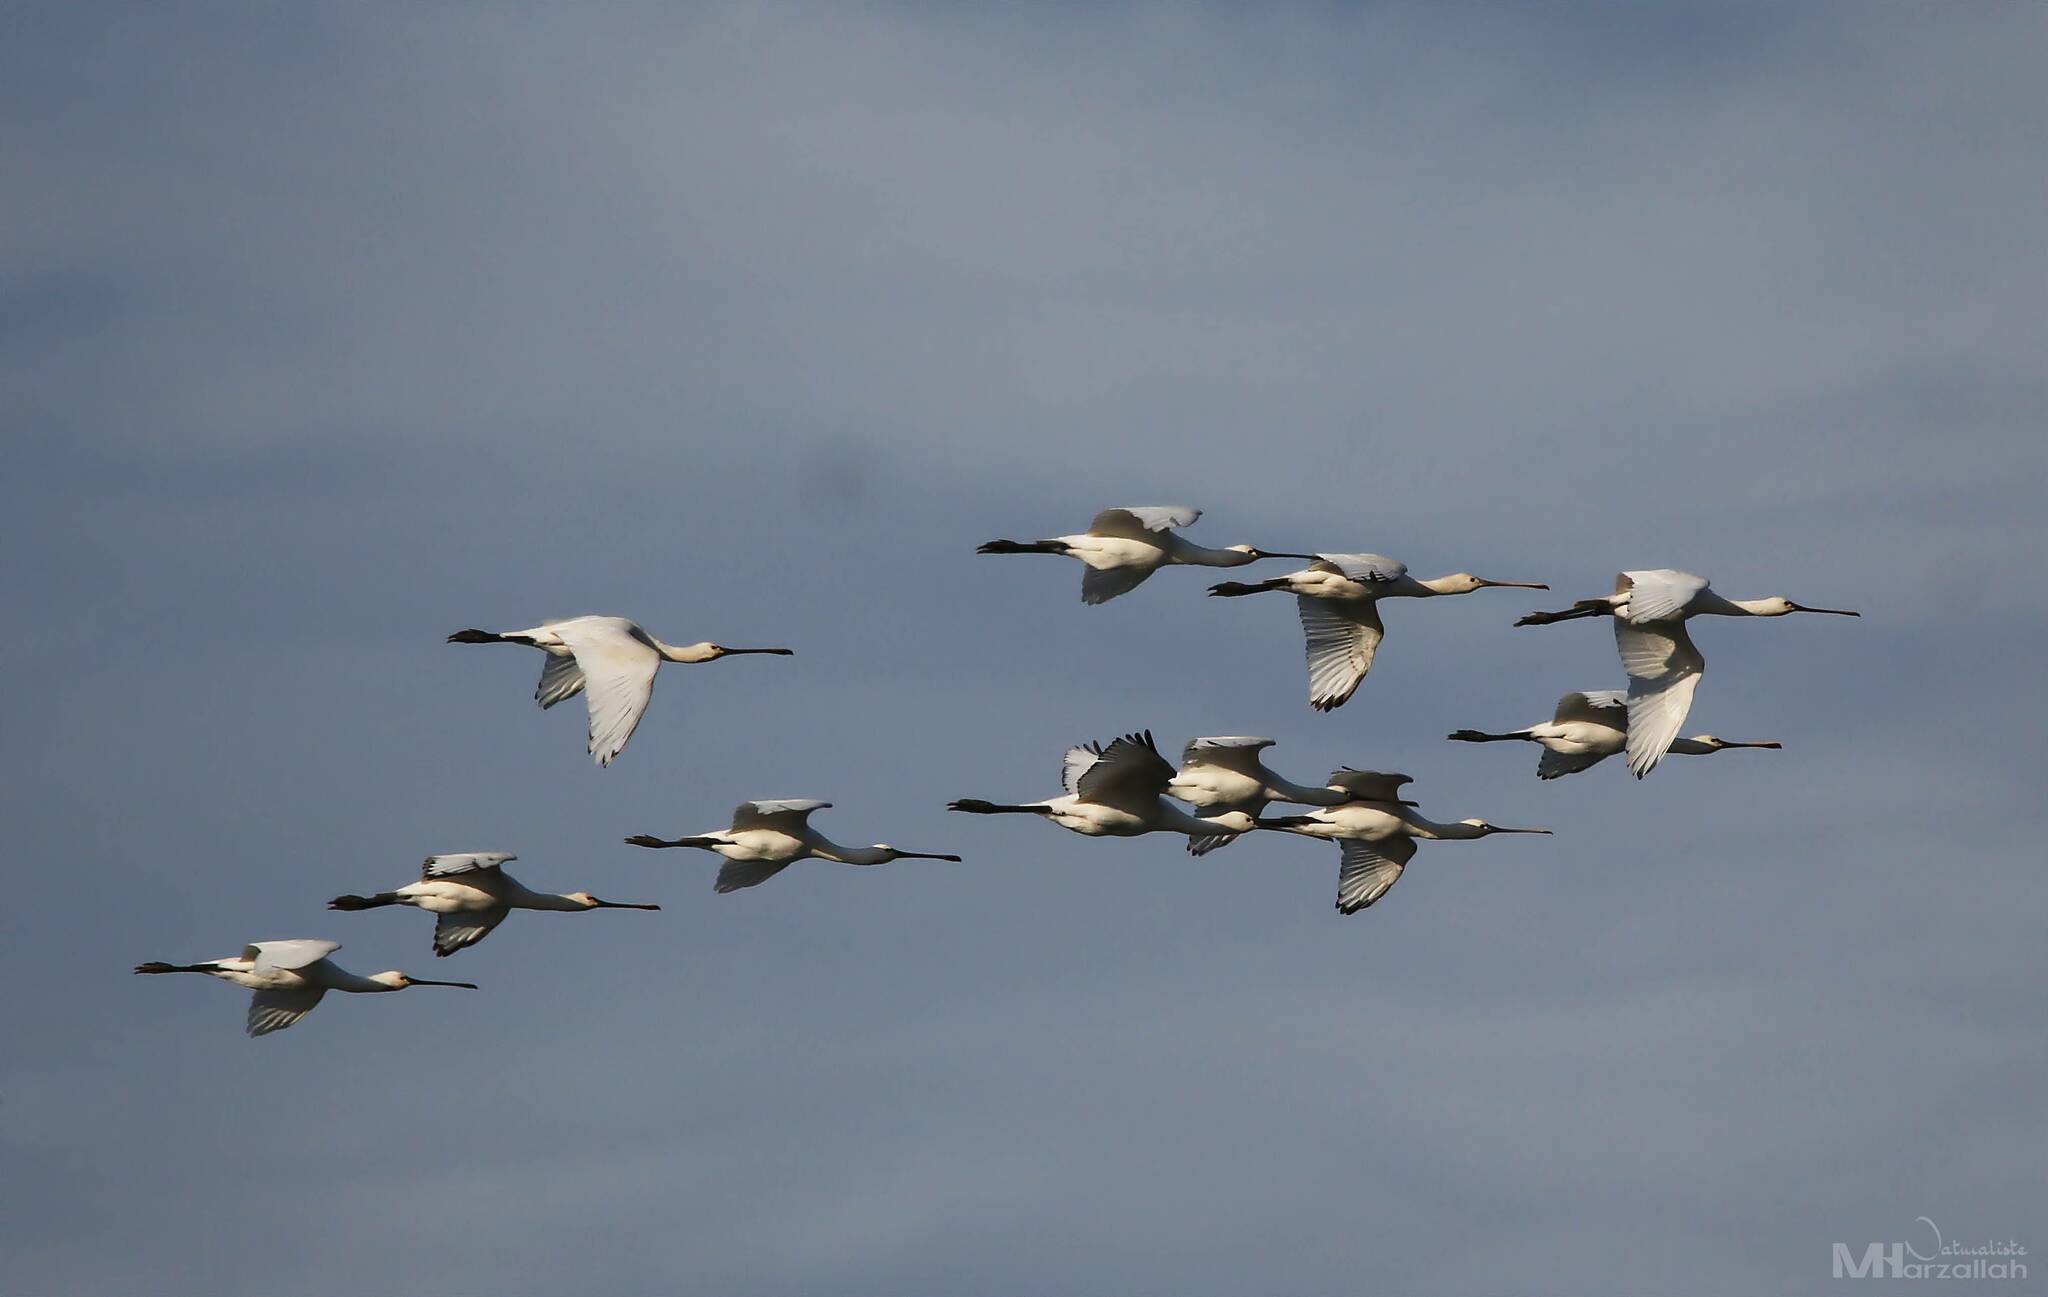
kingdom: Animalia
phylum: Chordata
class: Aves
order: Pelecaniformes
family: Threskiornithidae
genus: Platalea
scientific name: Platalea leucorodia
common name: Eurasian spoonbill
